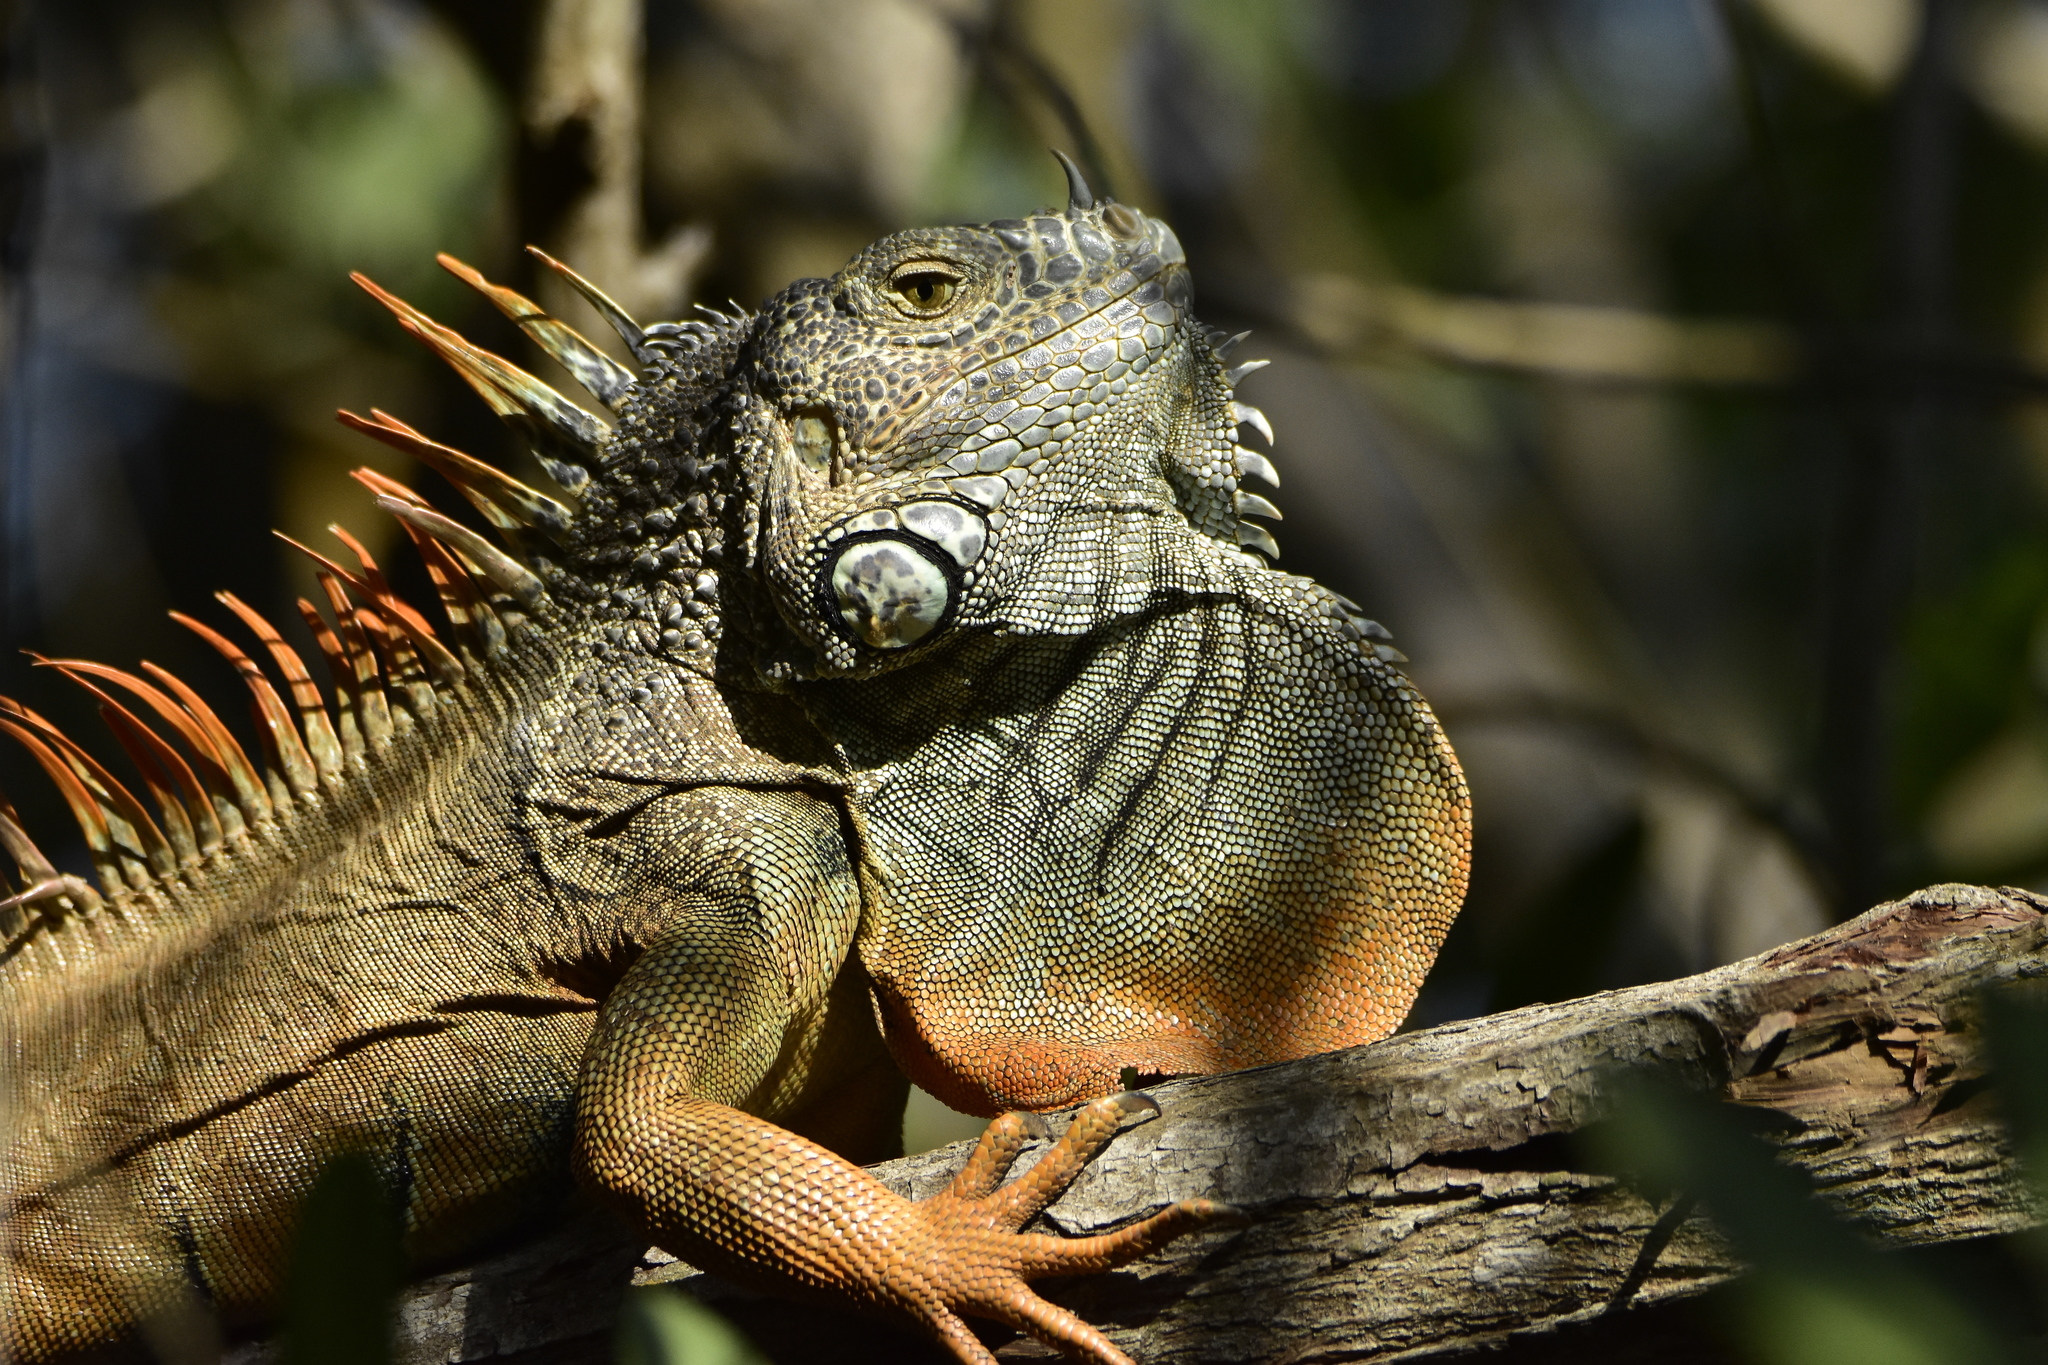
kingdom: Animalia
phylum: Chordata
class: Squamata
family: Iguanidae
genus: Iguana
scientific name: Iguana iguana
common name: Green iguana
